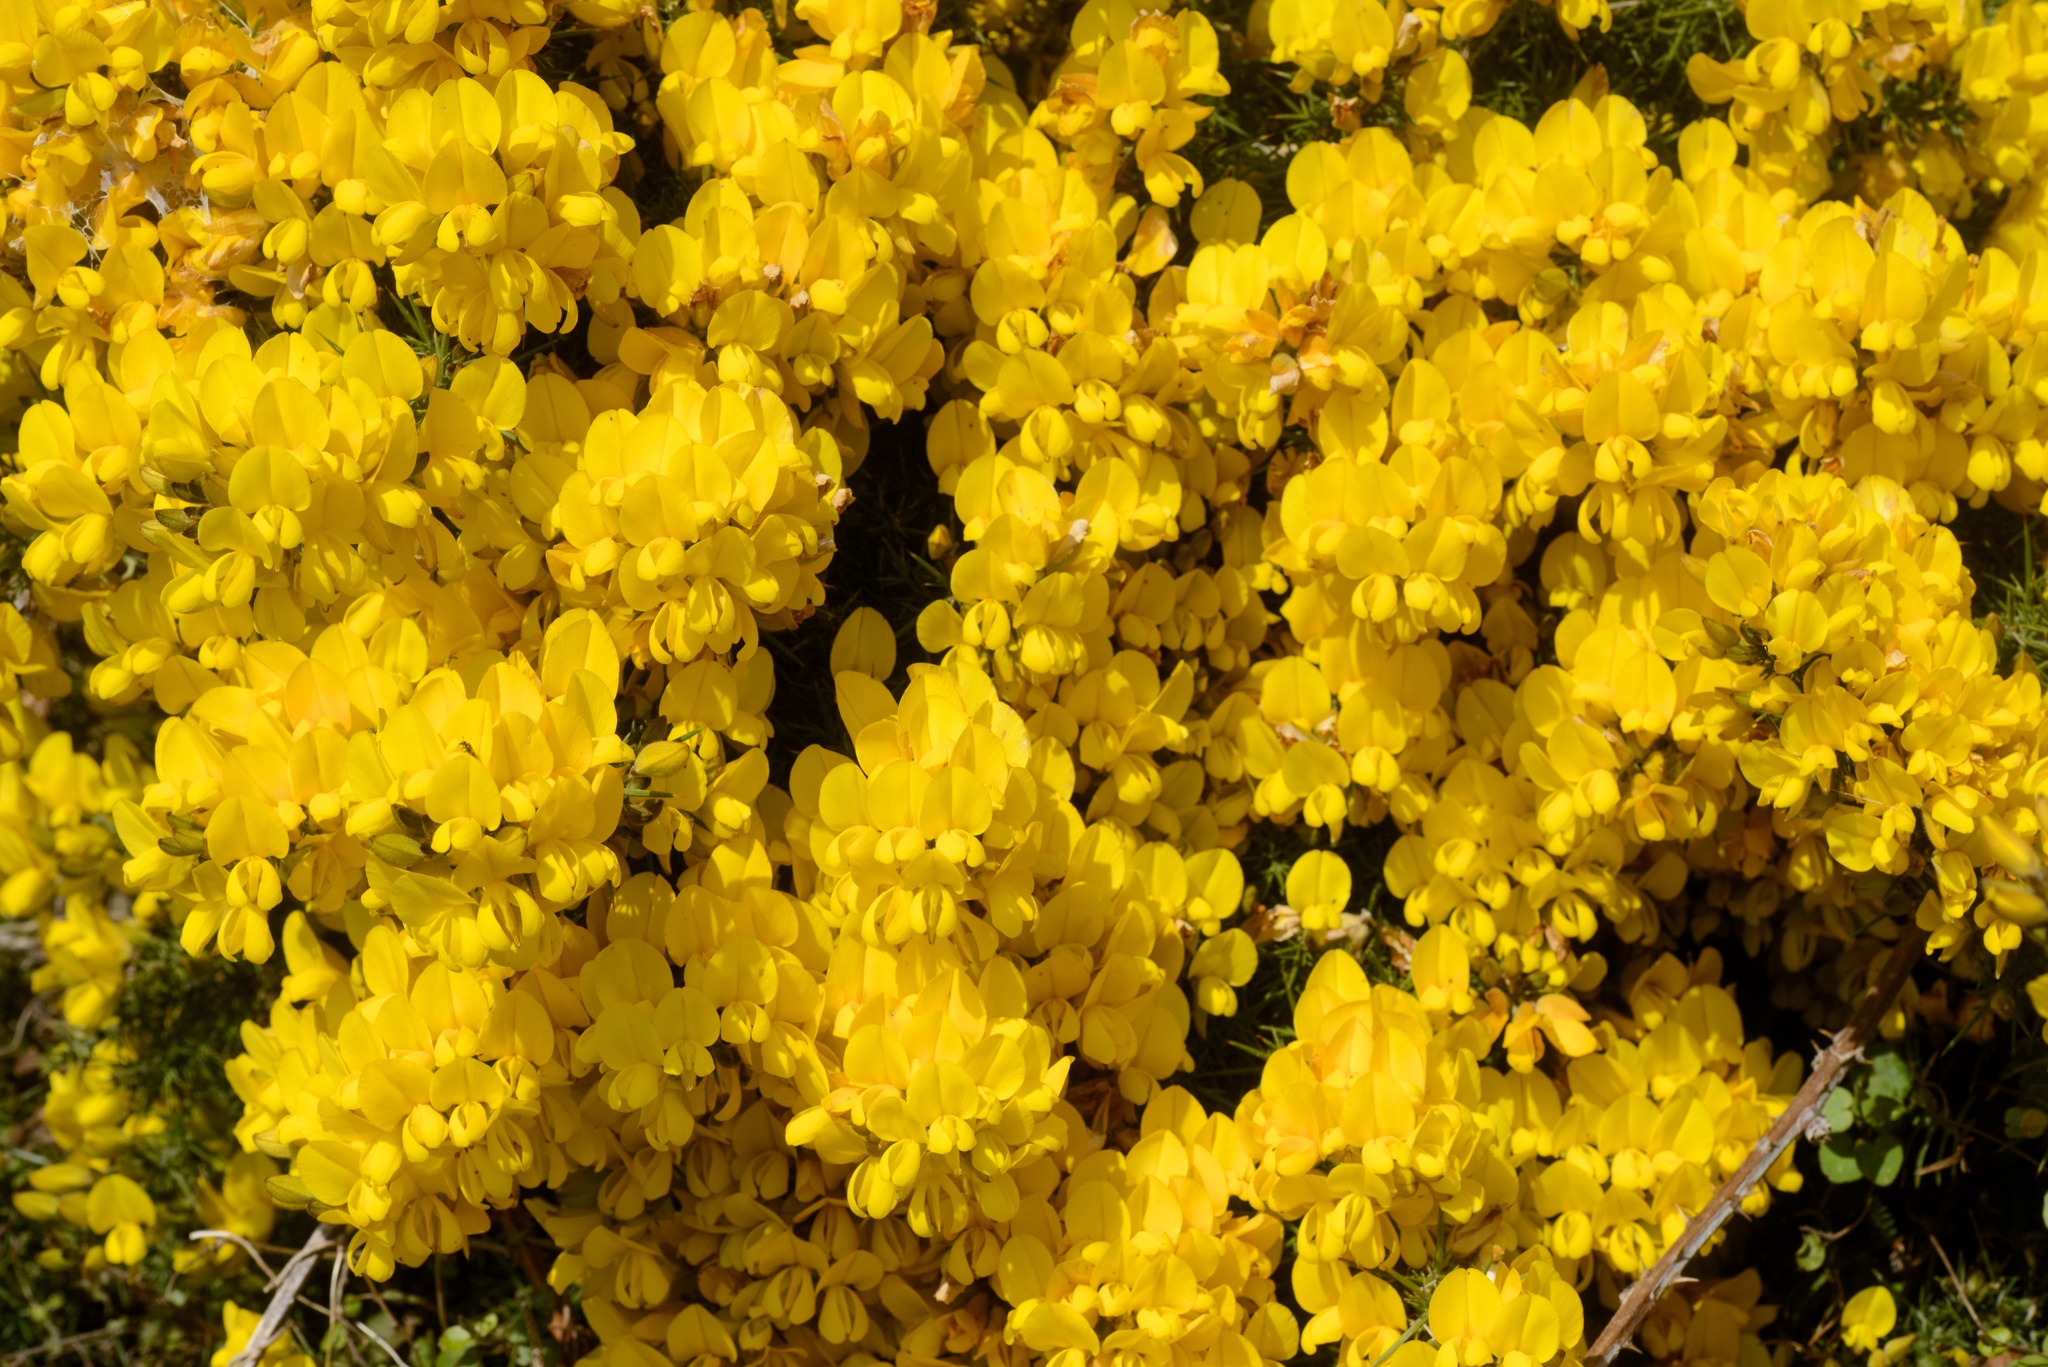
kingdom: Plantae
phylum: Tracheophyta
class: Magnoliopsida
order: Fabales
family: Fabaceae
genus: Ulex
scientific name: Ulex europaeus
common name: Common gorse
